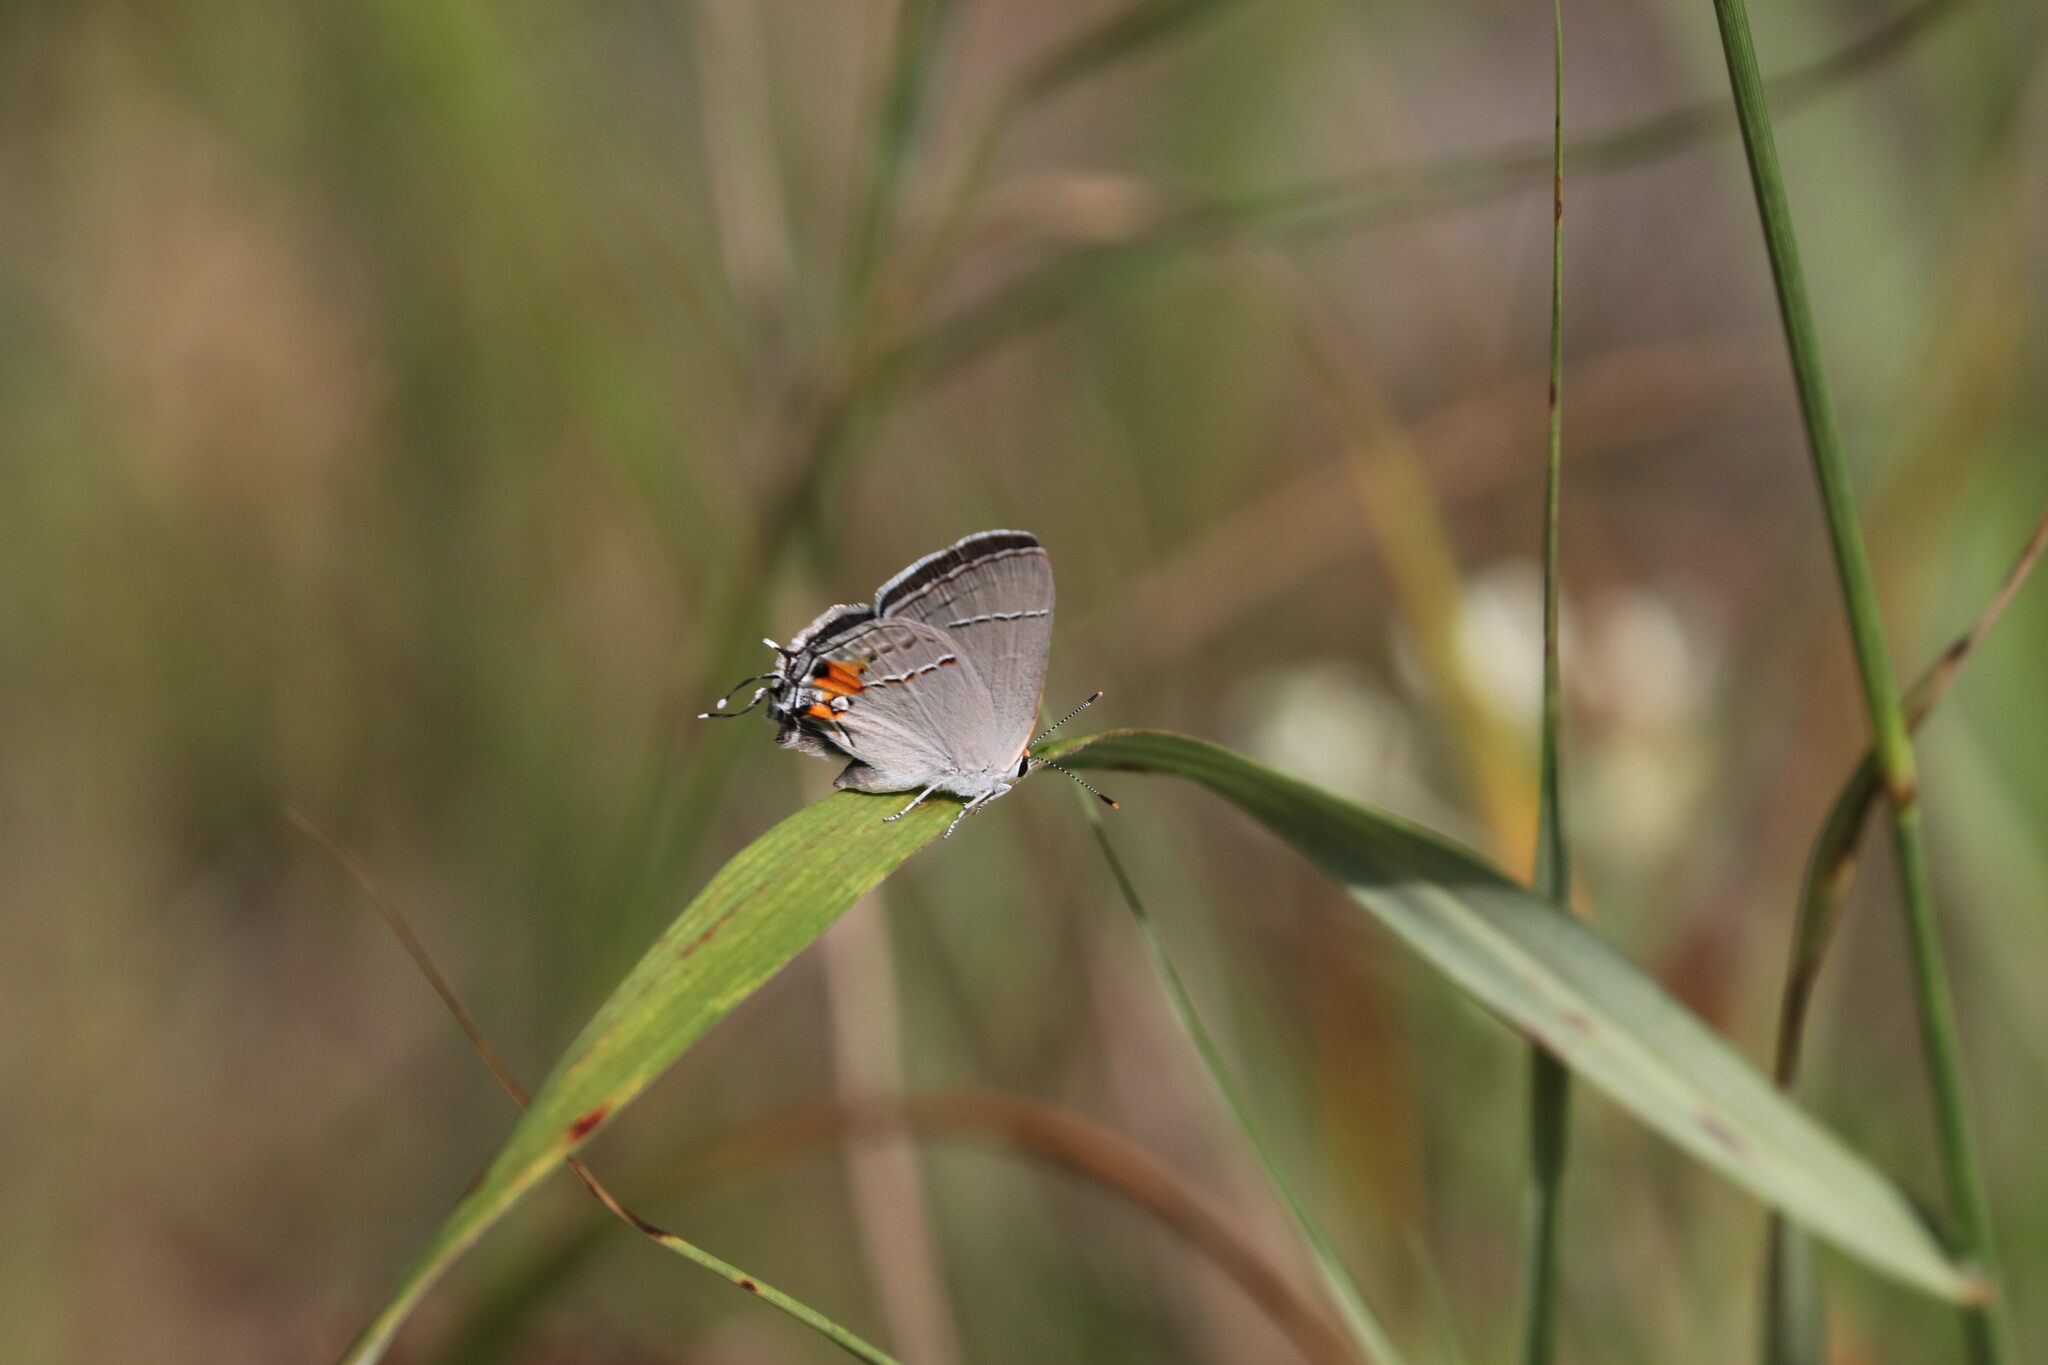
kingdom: Animalia
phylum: Arthropoda
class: Insecta
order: Lepidoptera
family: Lycaenidae
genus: Strymon
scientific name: Strymon melinus
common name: Gray hairstreak
